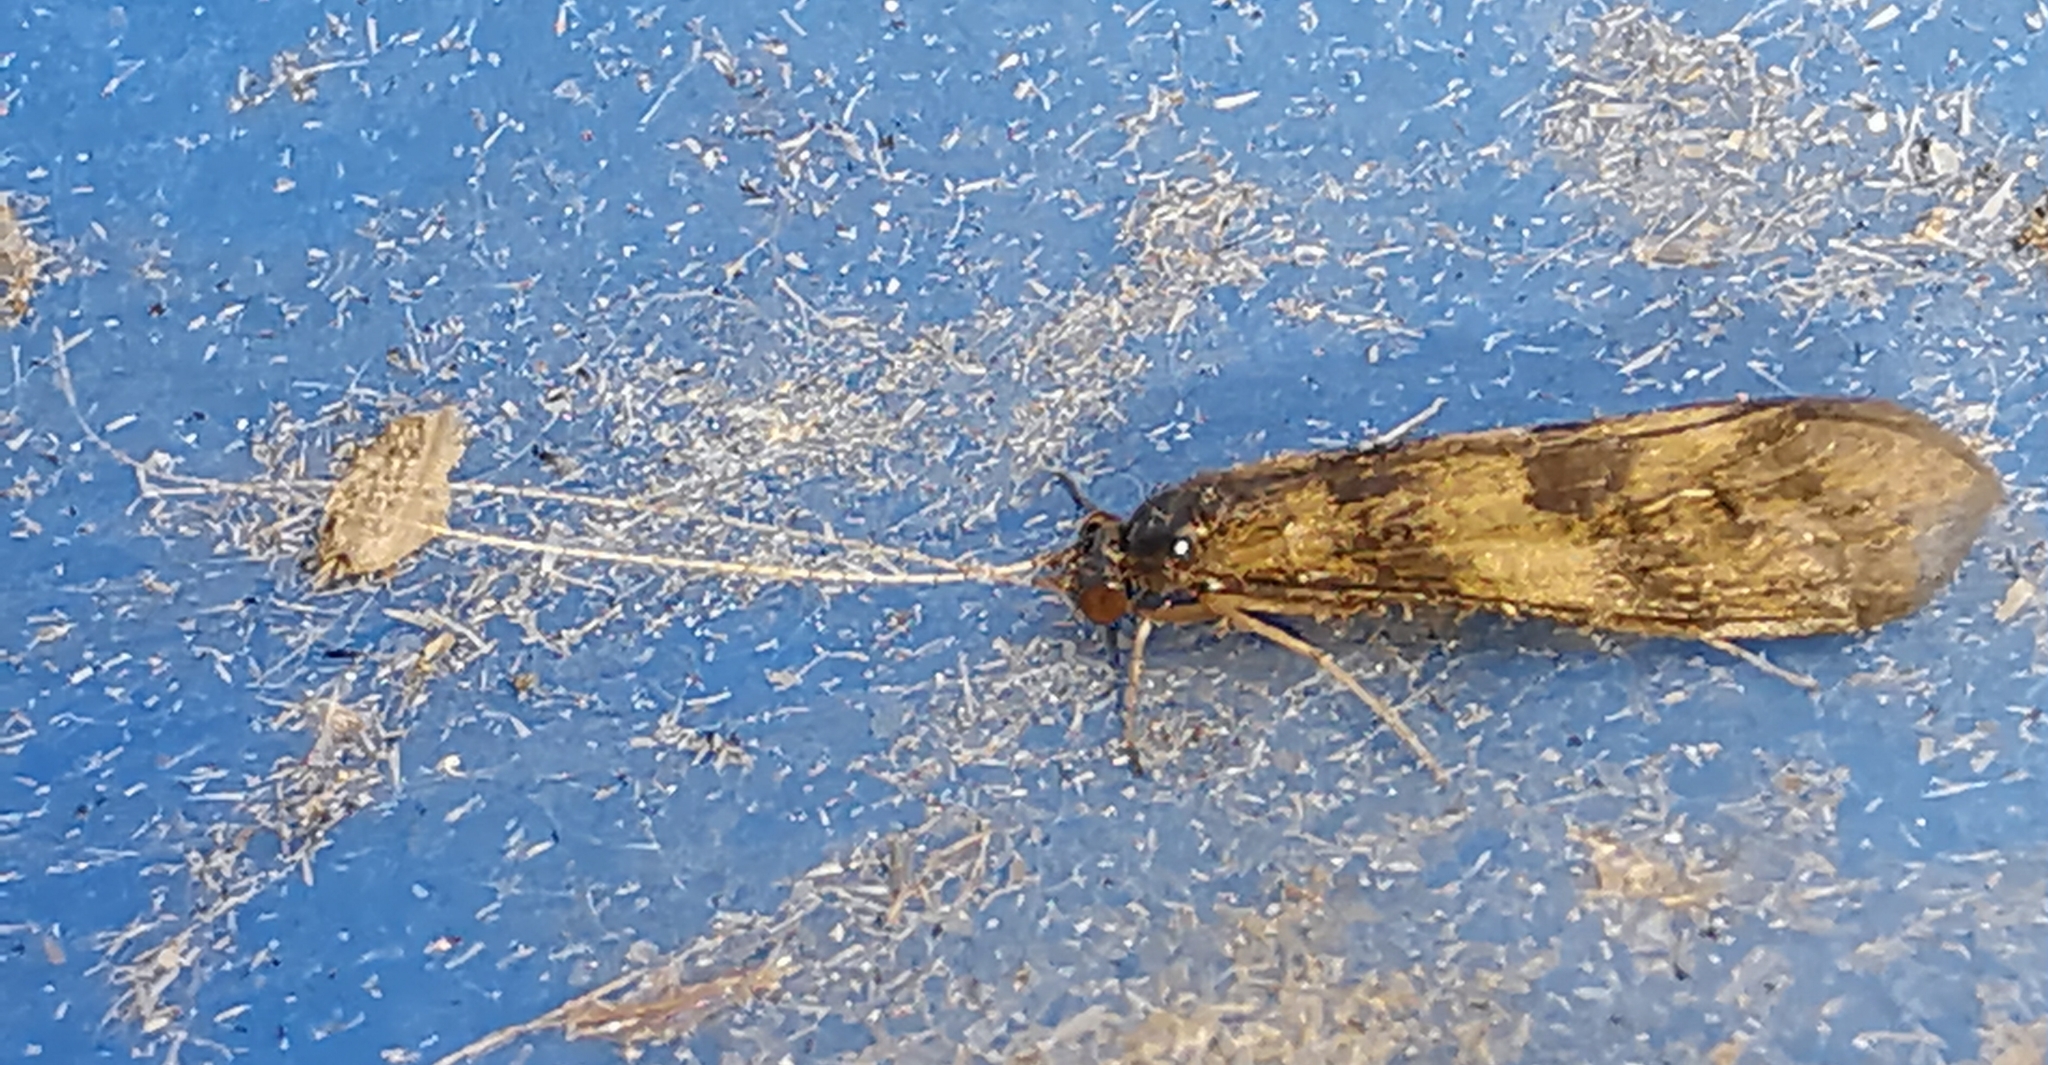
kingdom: Animalia
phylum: Arthropoda
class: Insecta
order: Trichoptera
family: Leptoceridae
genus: Mystacides
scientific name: Mystacides longicornis
